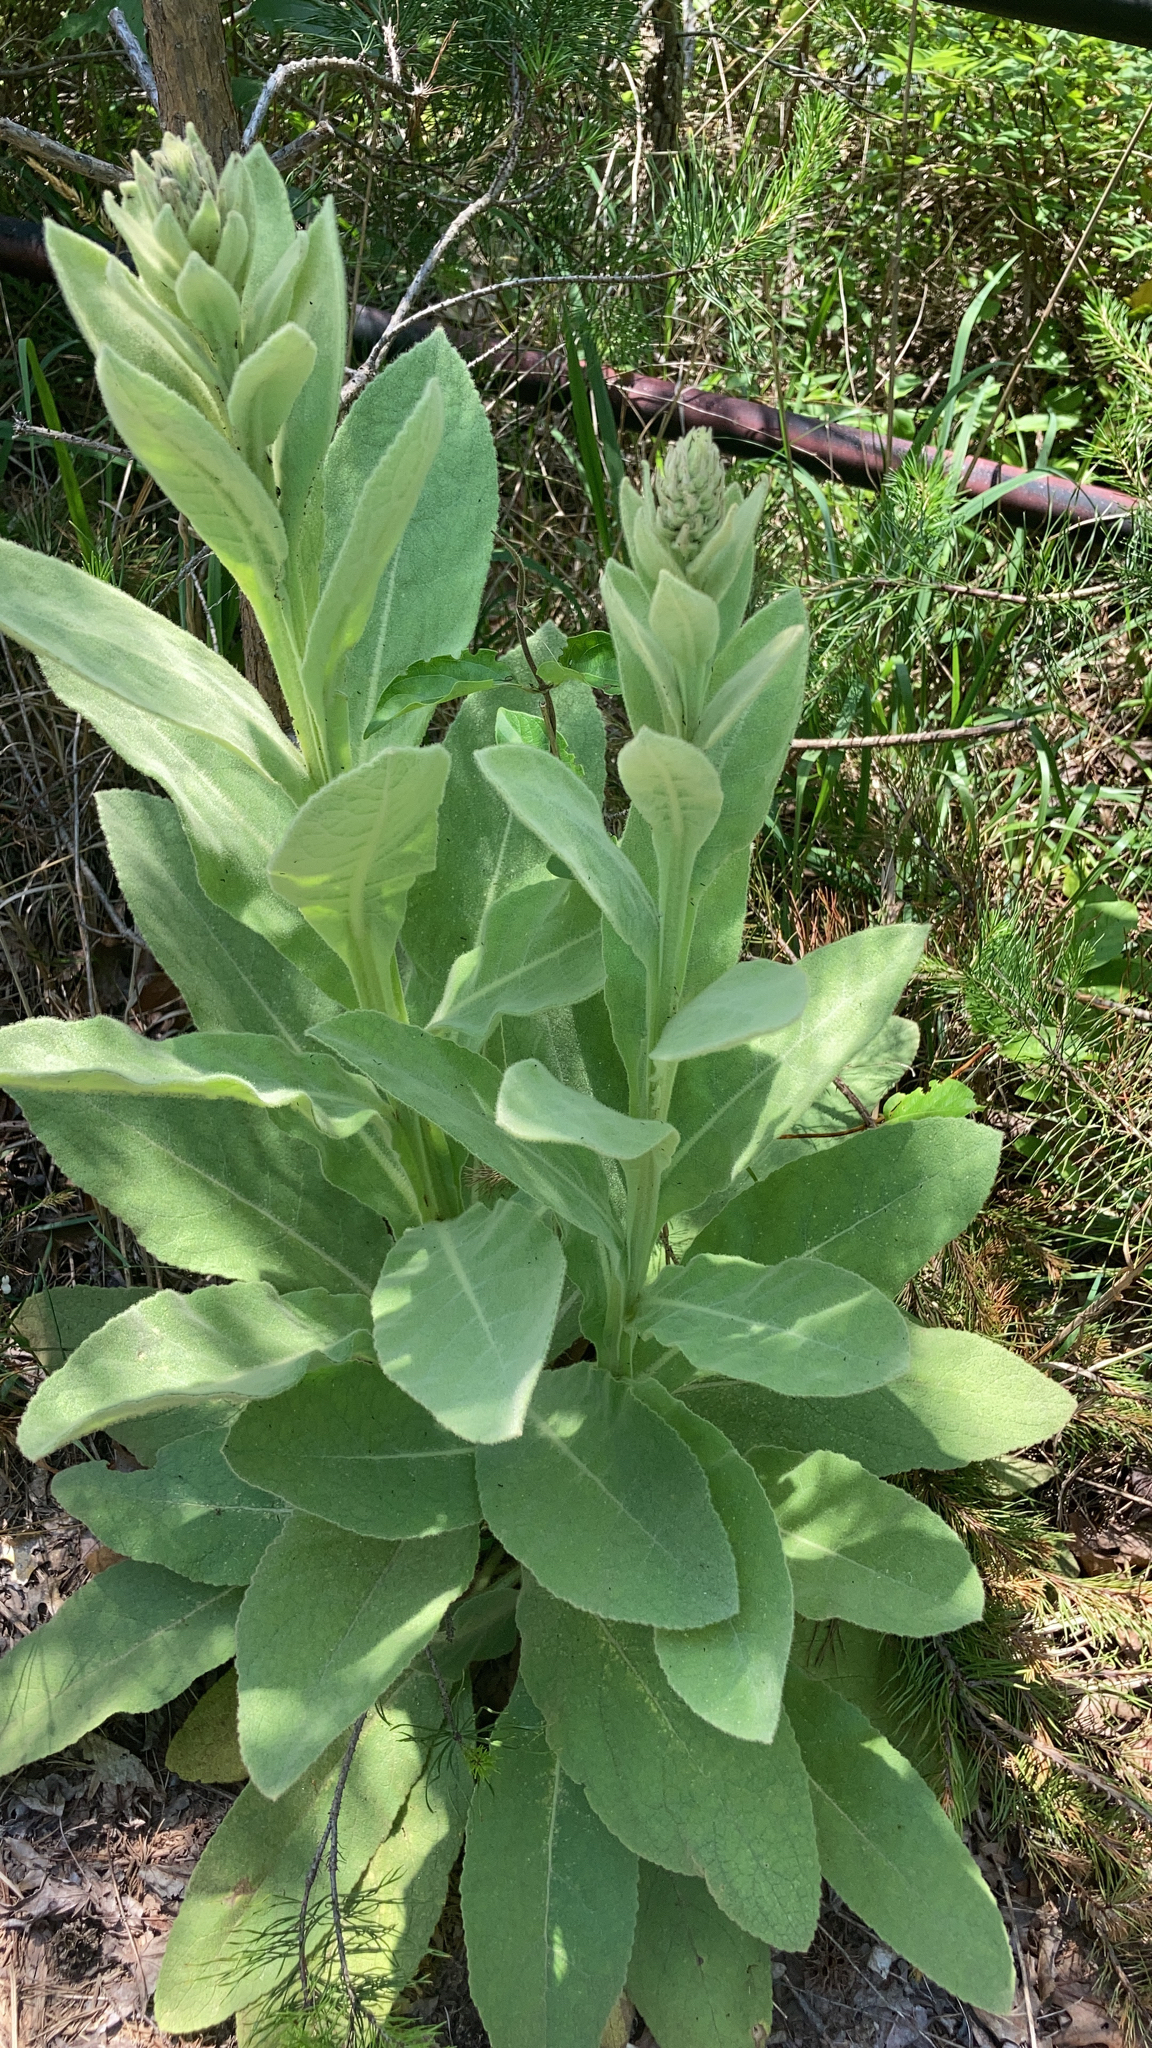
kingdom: Plantae
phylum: Tracheophyta
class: Magnoliopsida
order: Lamiales
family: Scrophulariaceae
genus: Verbascum
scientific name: Verbascum thapsus
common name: Common mullein
